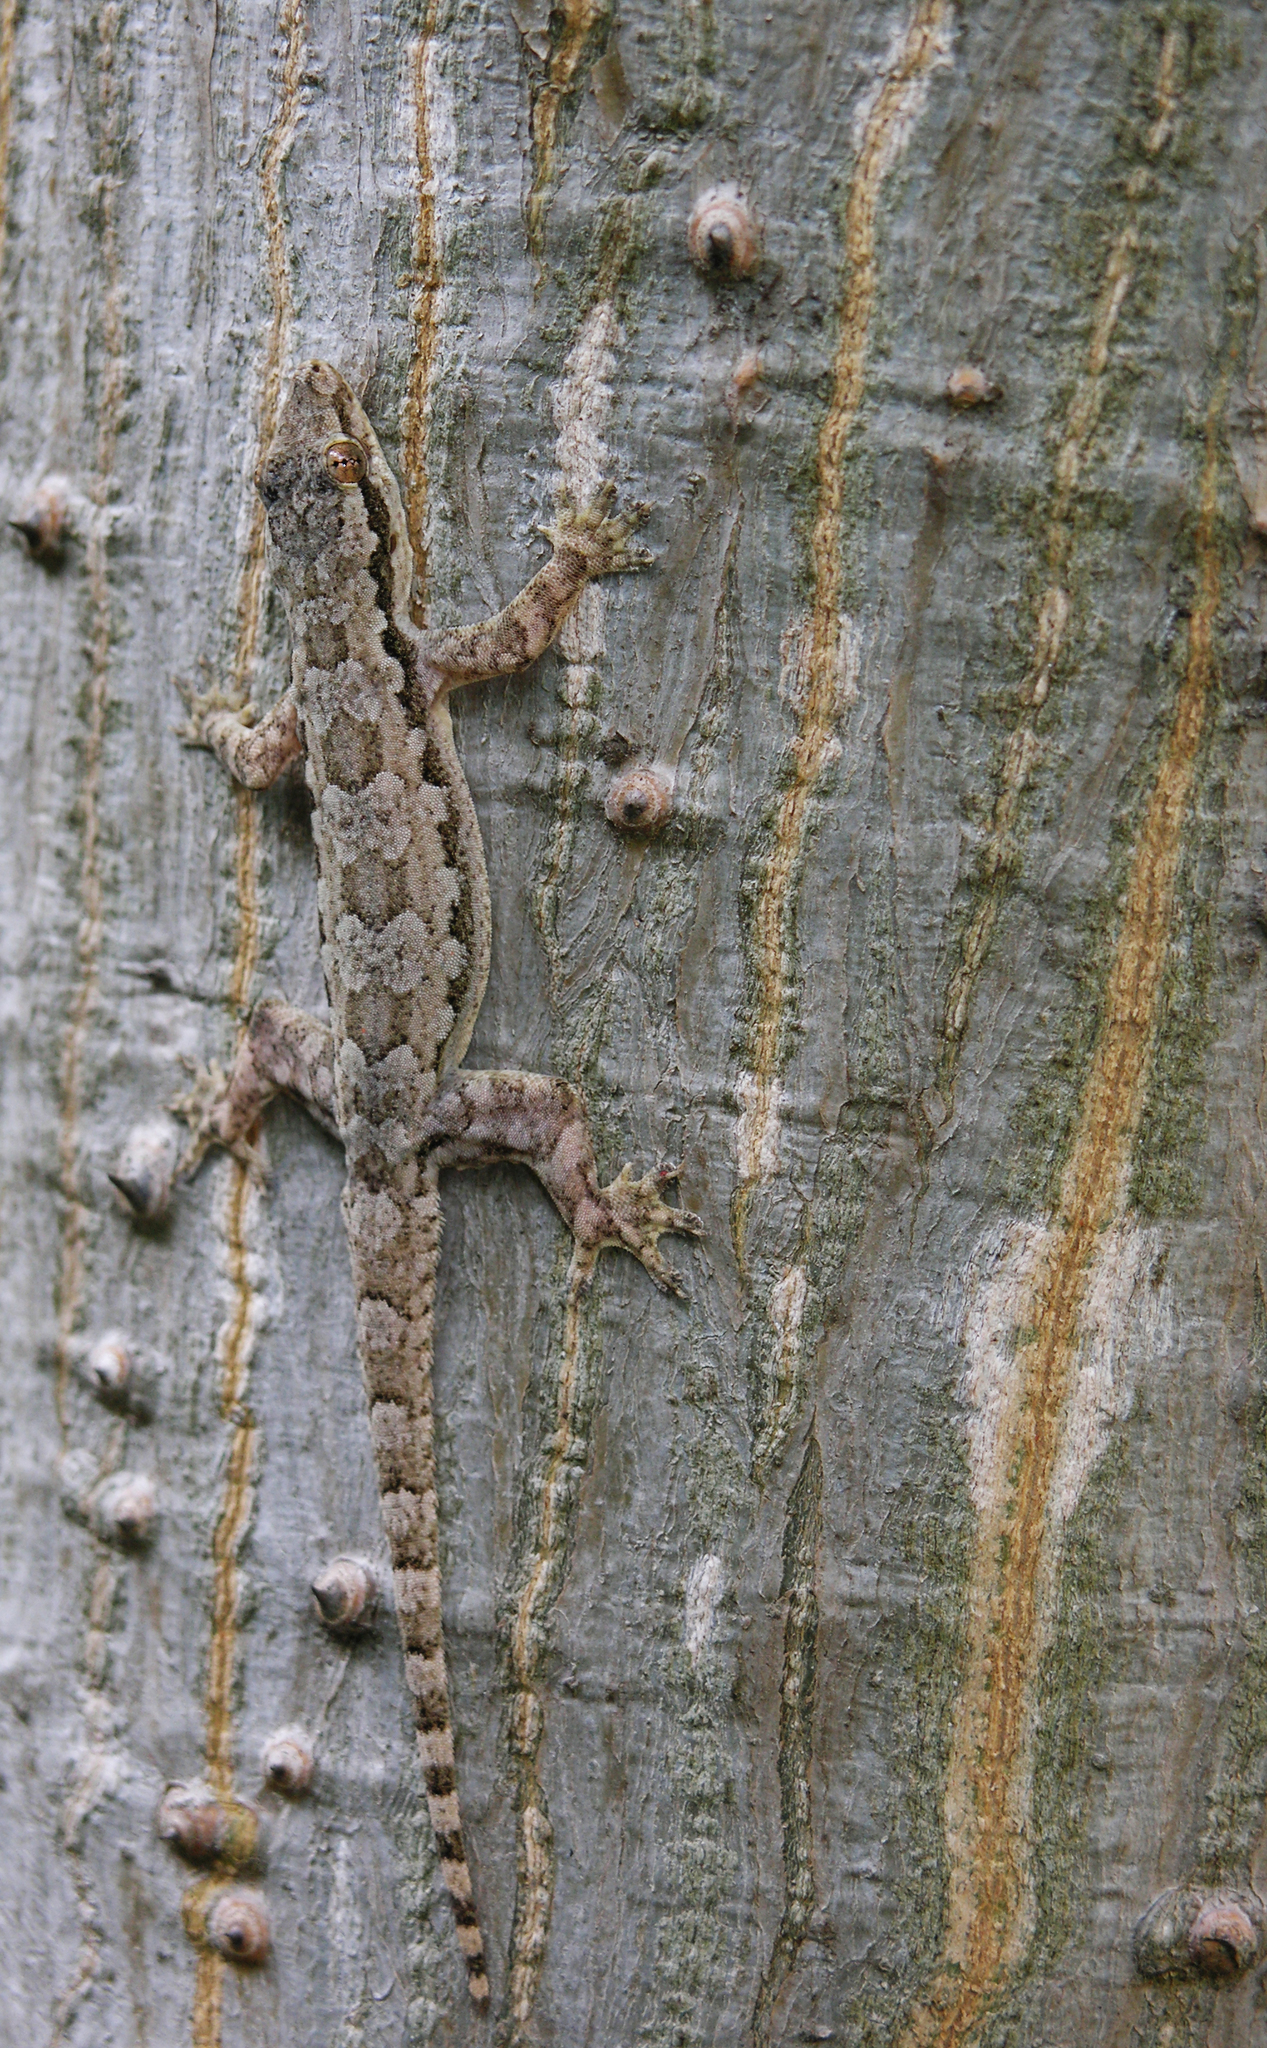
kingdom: Animalia
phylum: Chordata
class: Squamata
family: Gekkonidae
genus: Hemidactylus
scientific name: Hemidactylus platyurus
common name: Flat-tailed house gecko
